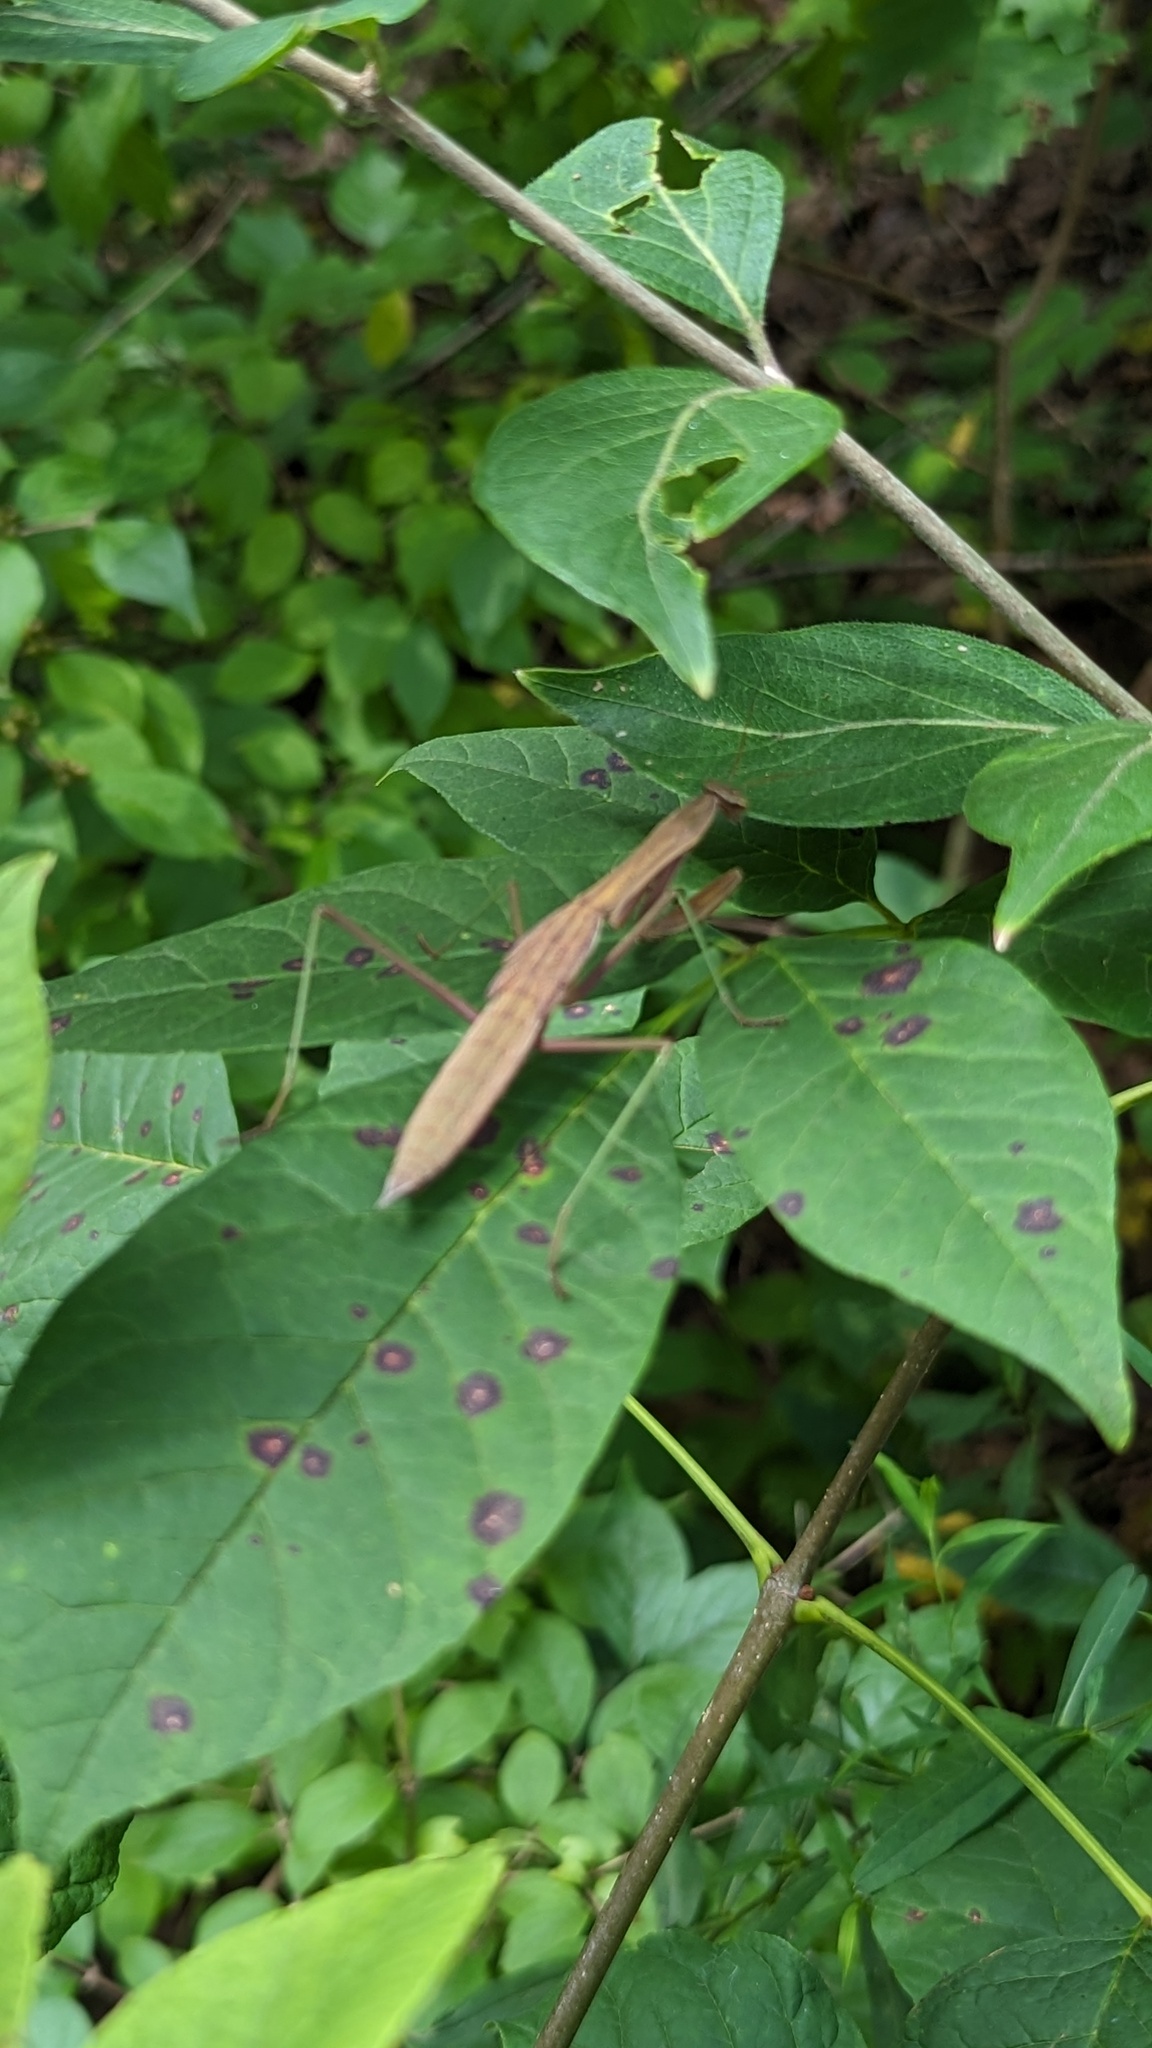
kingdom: Animalia
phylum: Arthropoda
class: Insecta
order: Mantodea
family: Mantidae
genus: Tenodera
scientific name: Tenodera sinensis
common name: Chinese mantis
